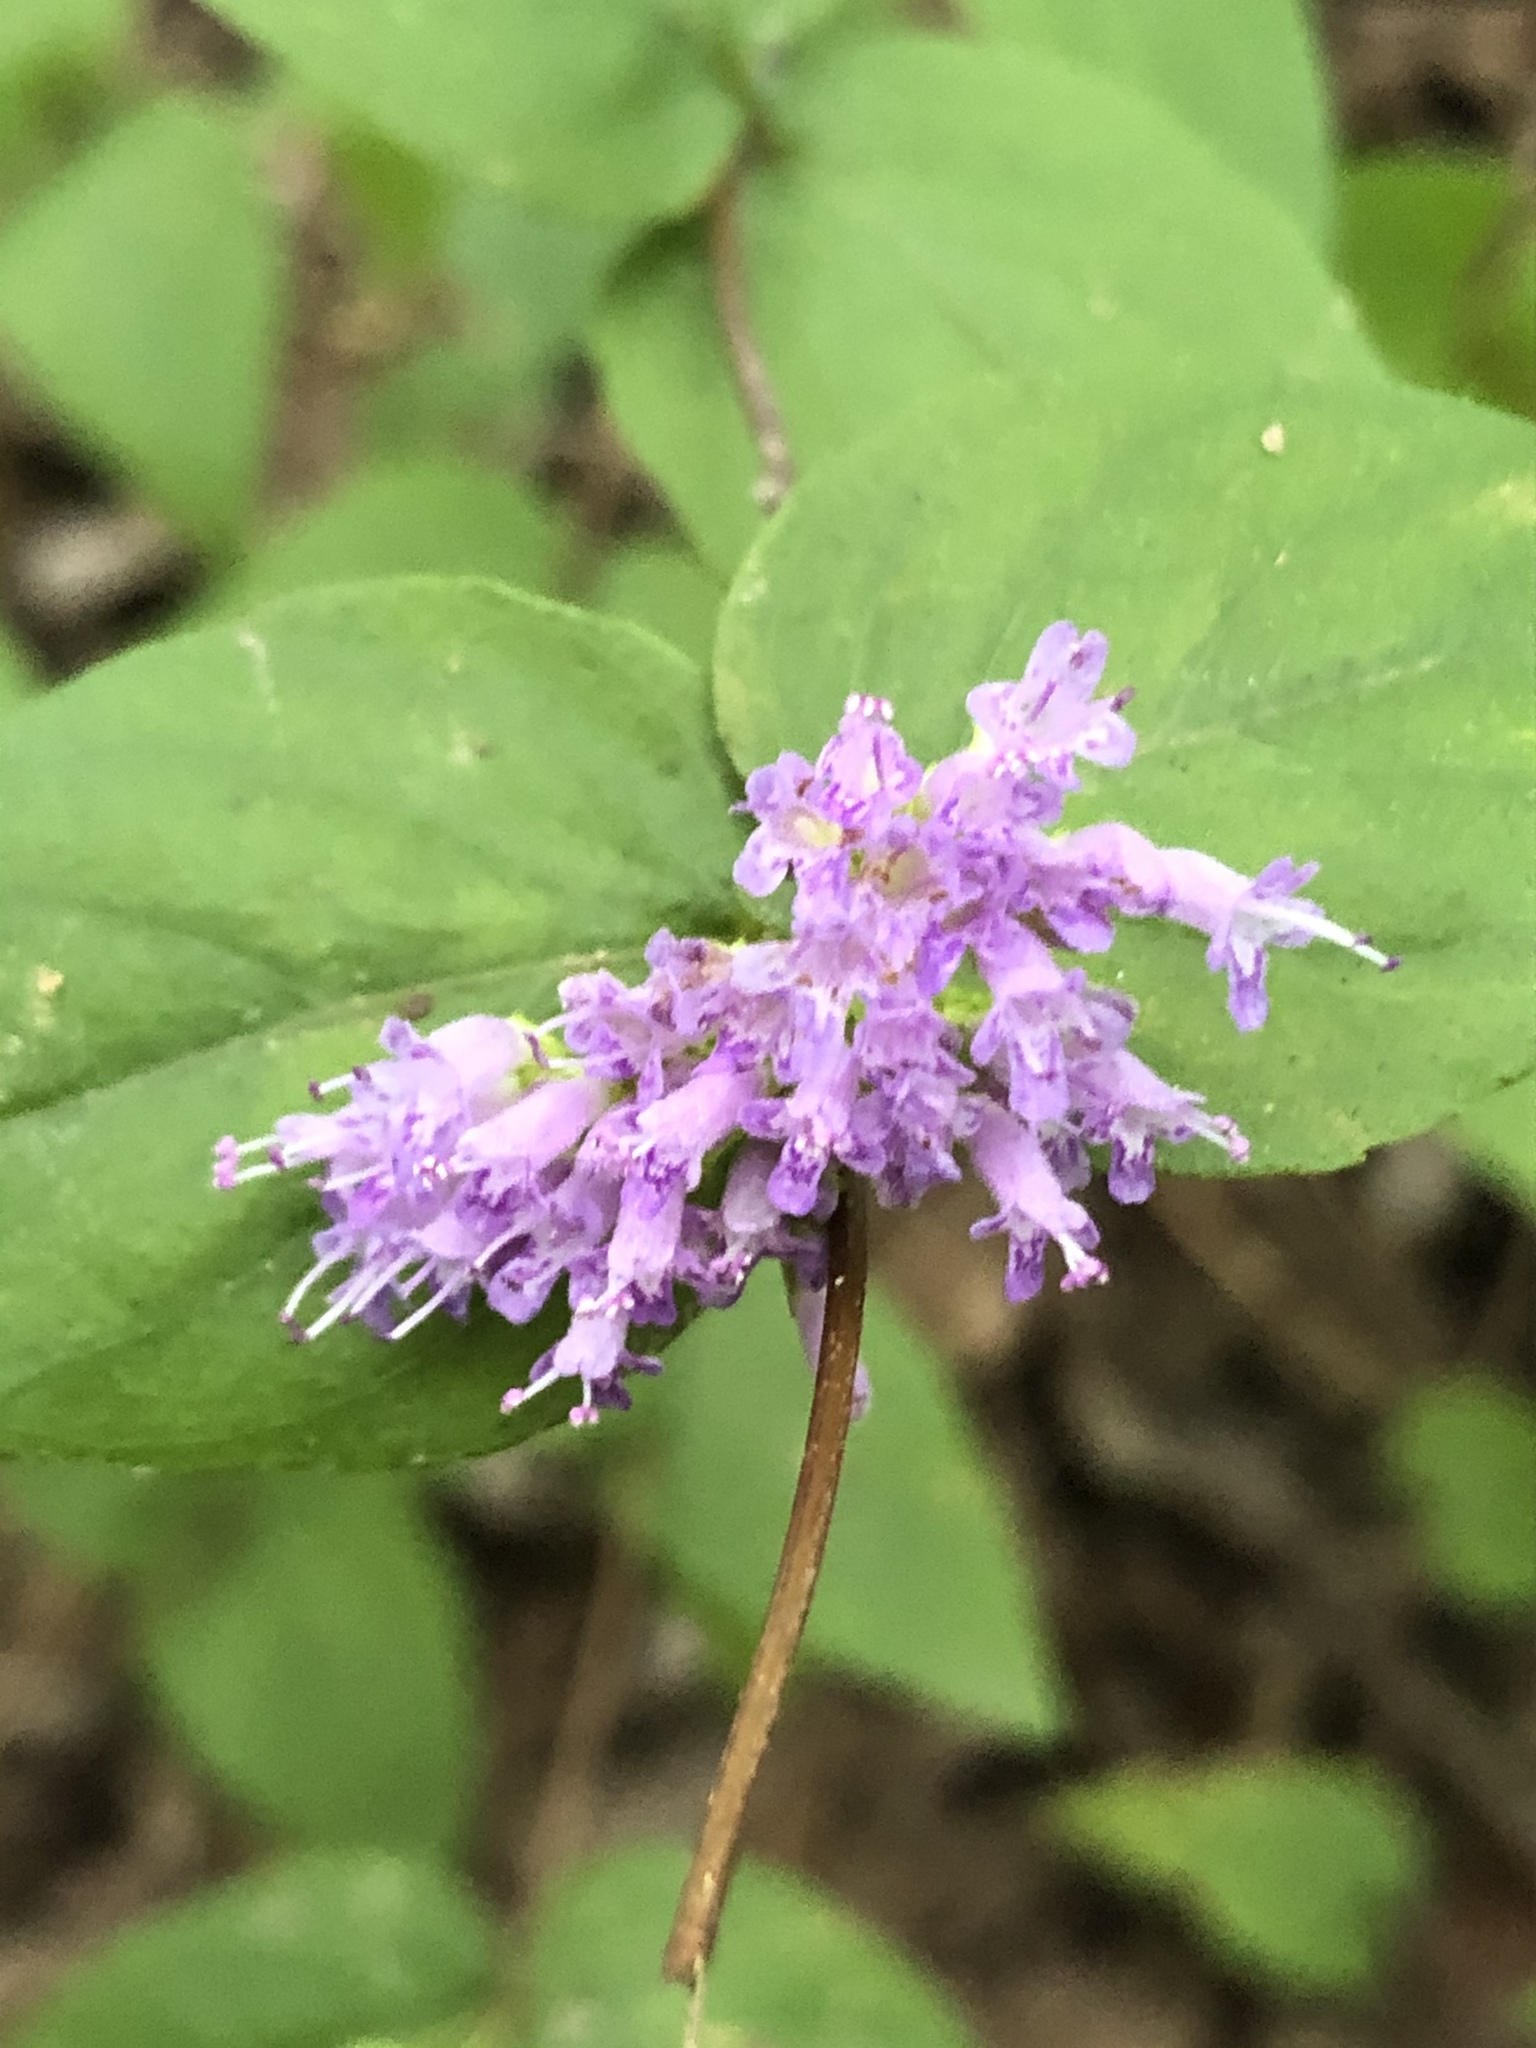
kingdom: Plantae
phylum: Tracheophyta
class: Magnoliopsida
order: Lamiales
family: Lamiaceae
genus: Cunila
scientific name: Cunila origanoides
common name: American dittany
